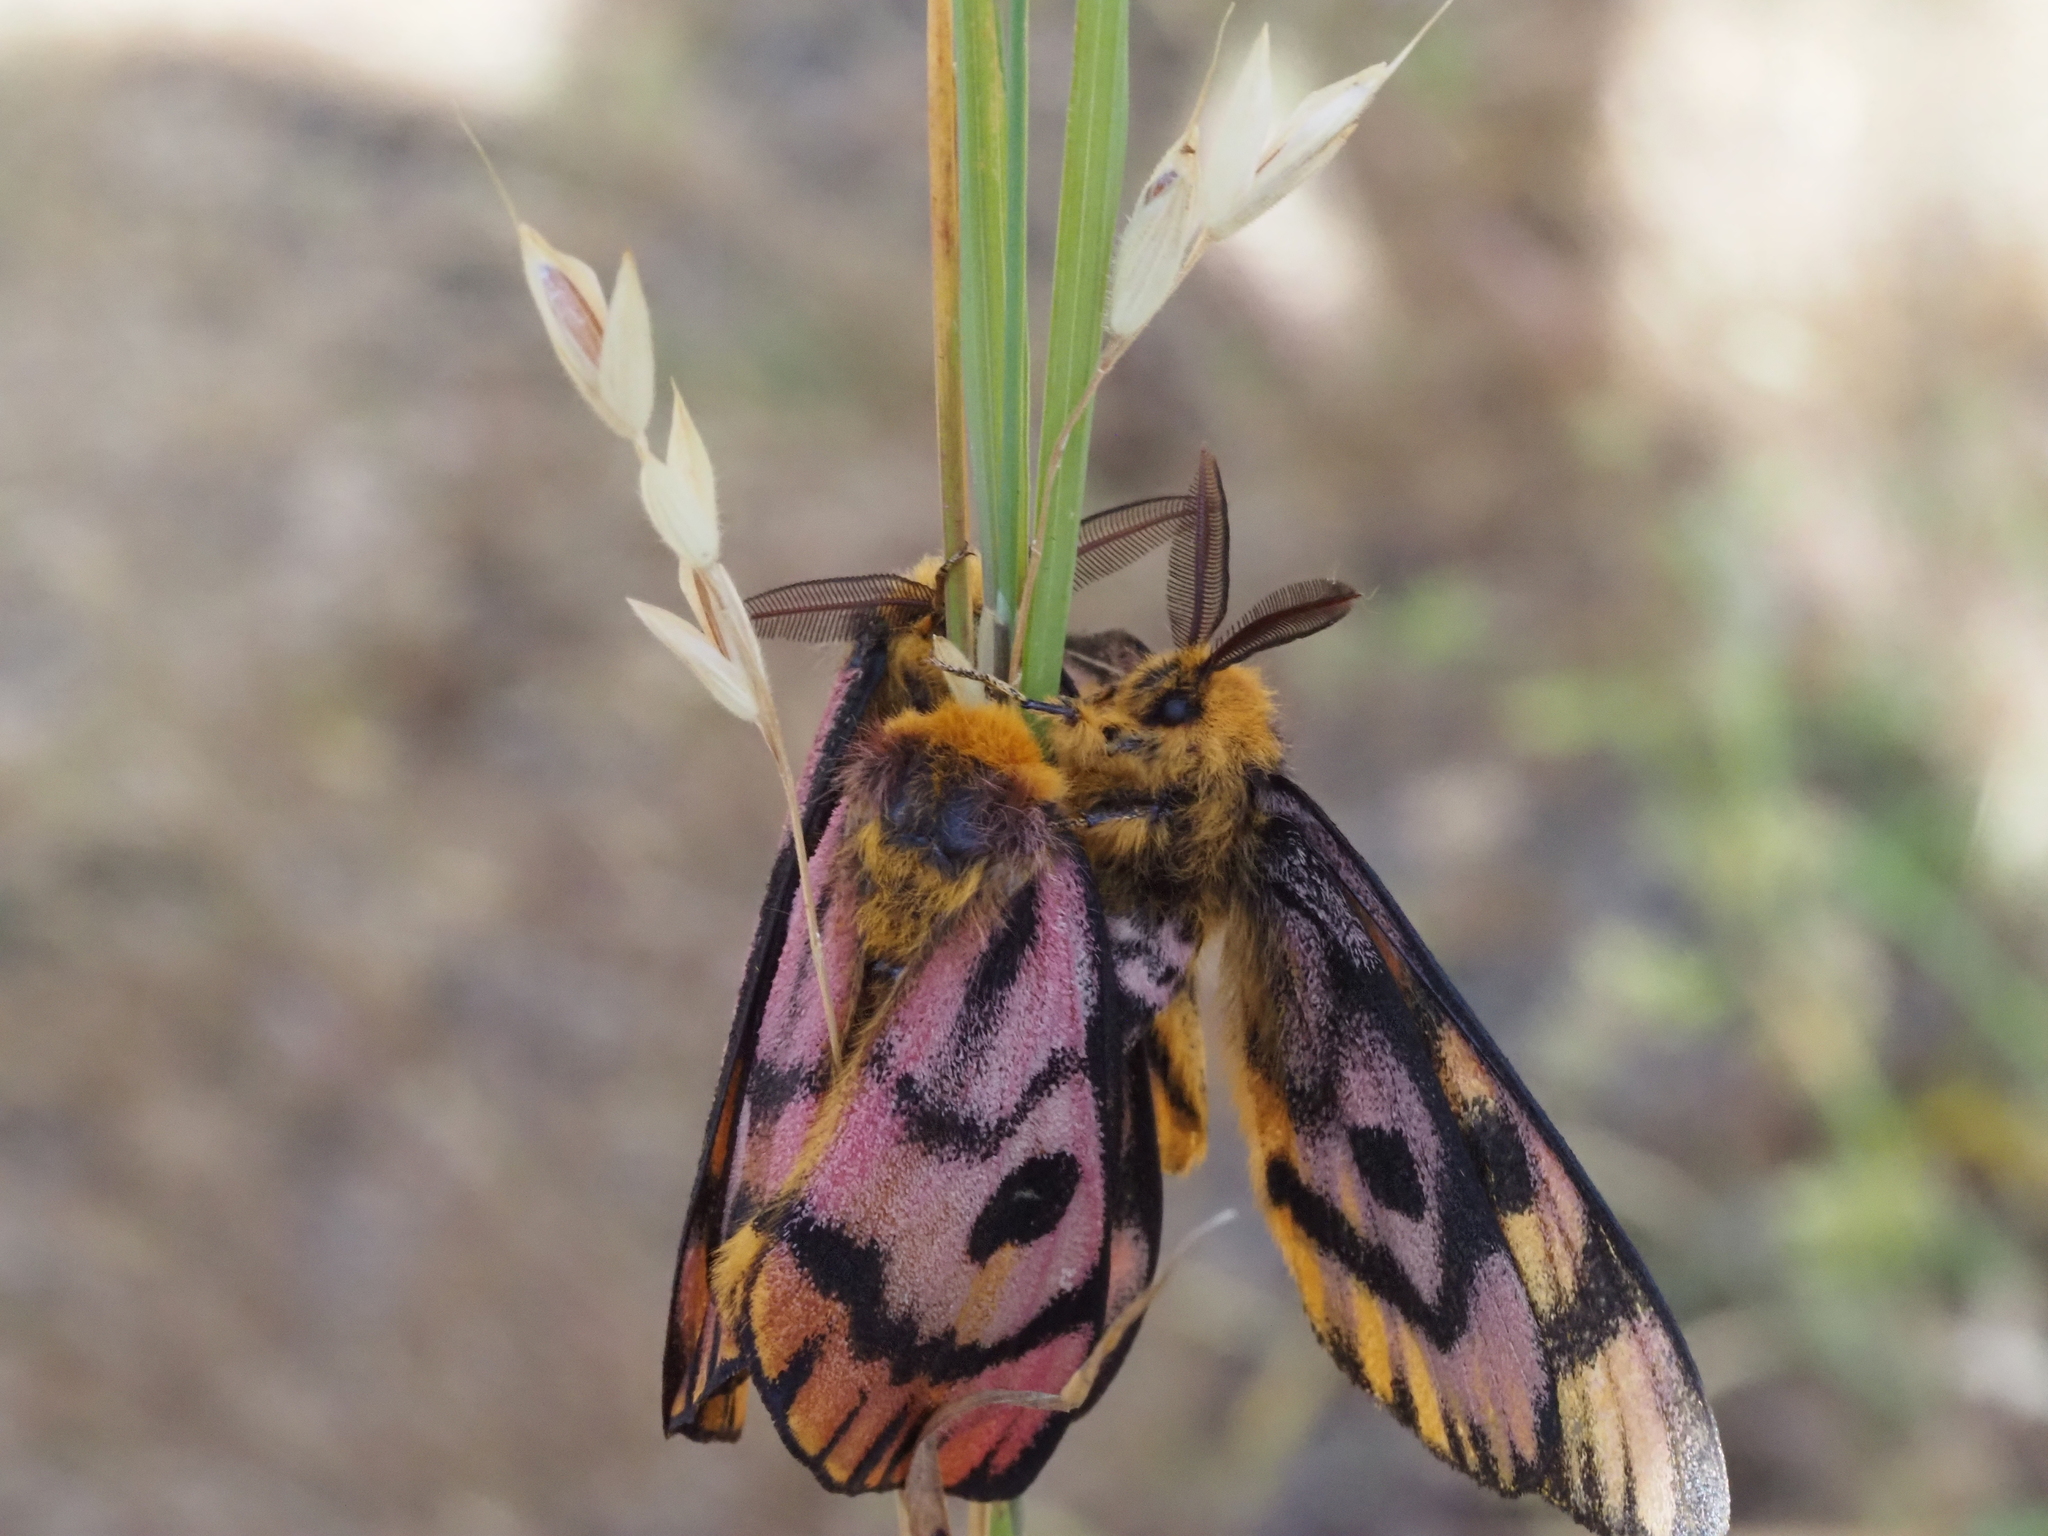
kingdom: Animalia
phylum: Arthropoda
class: Insecta
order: Lepidoptera
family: Saturniidae
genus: Hemileuca
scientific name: Hemileuca eglanterina
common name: Western sheepmoth
